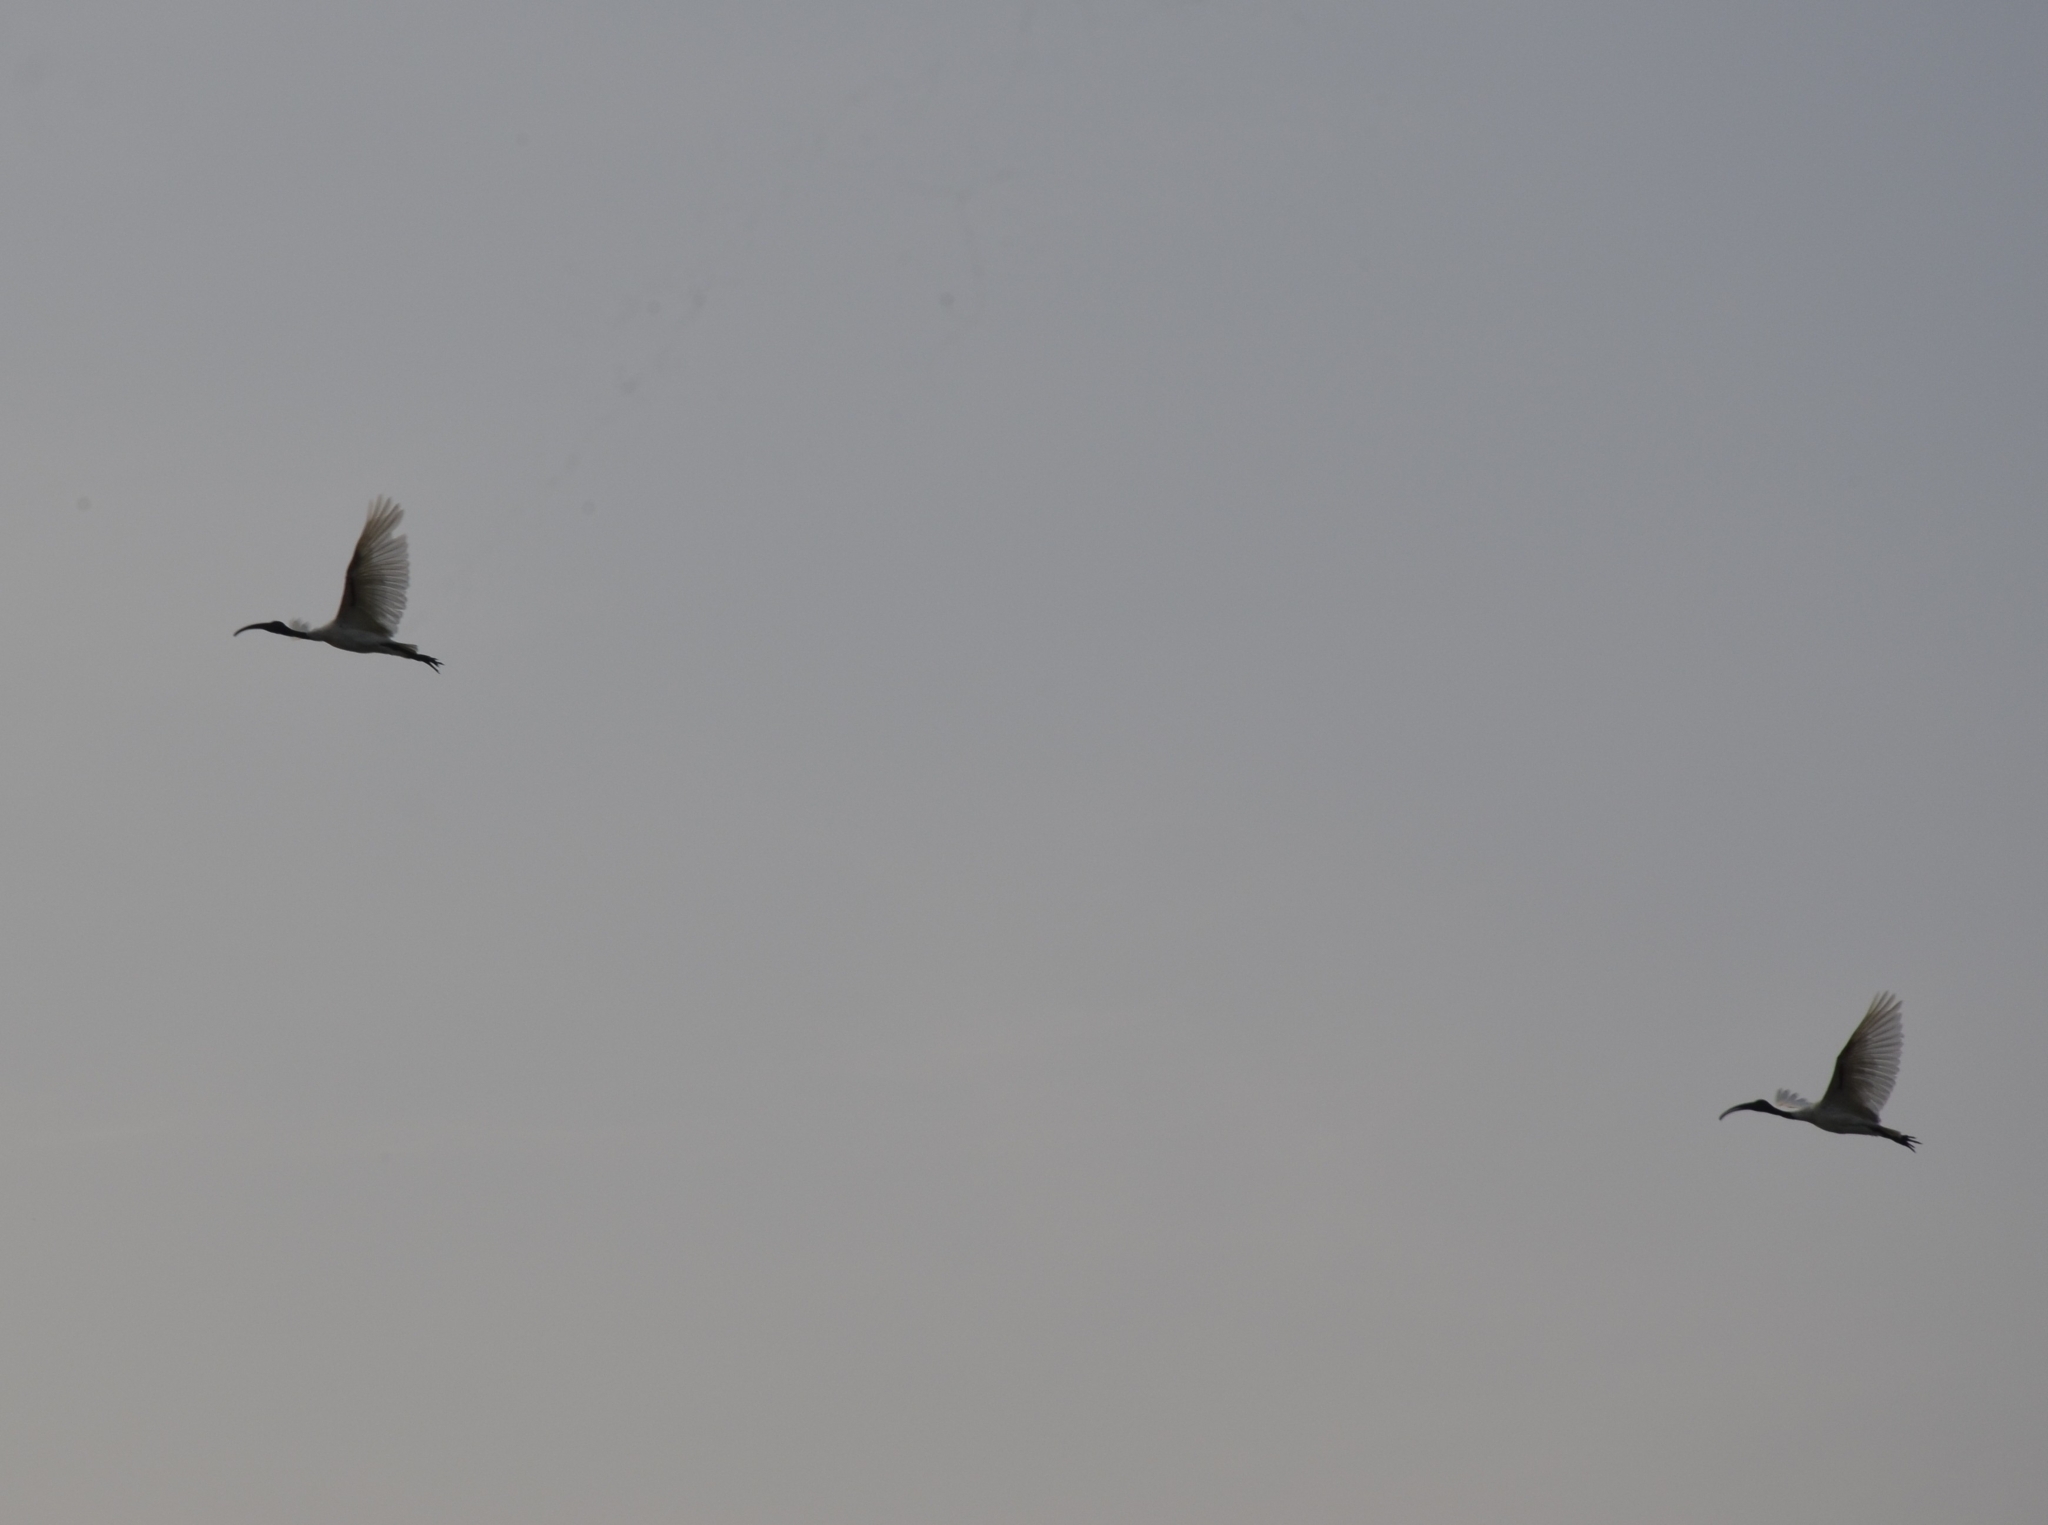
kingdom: Animalia
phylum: Chordata
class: Aves
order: Pelecaniformes
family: Threskiornithidae
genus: Threskiornis
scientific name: Threskiornis melanocephalus
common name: Black-headed ibis
